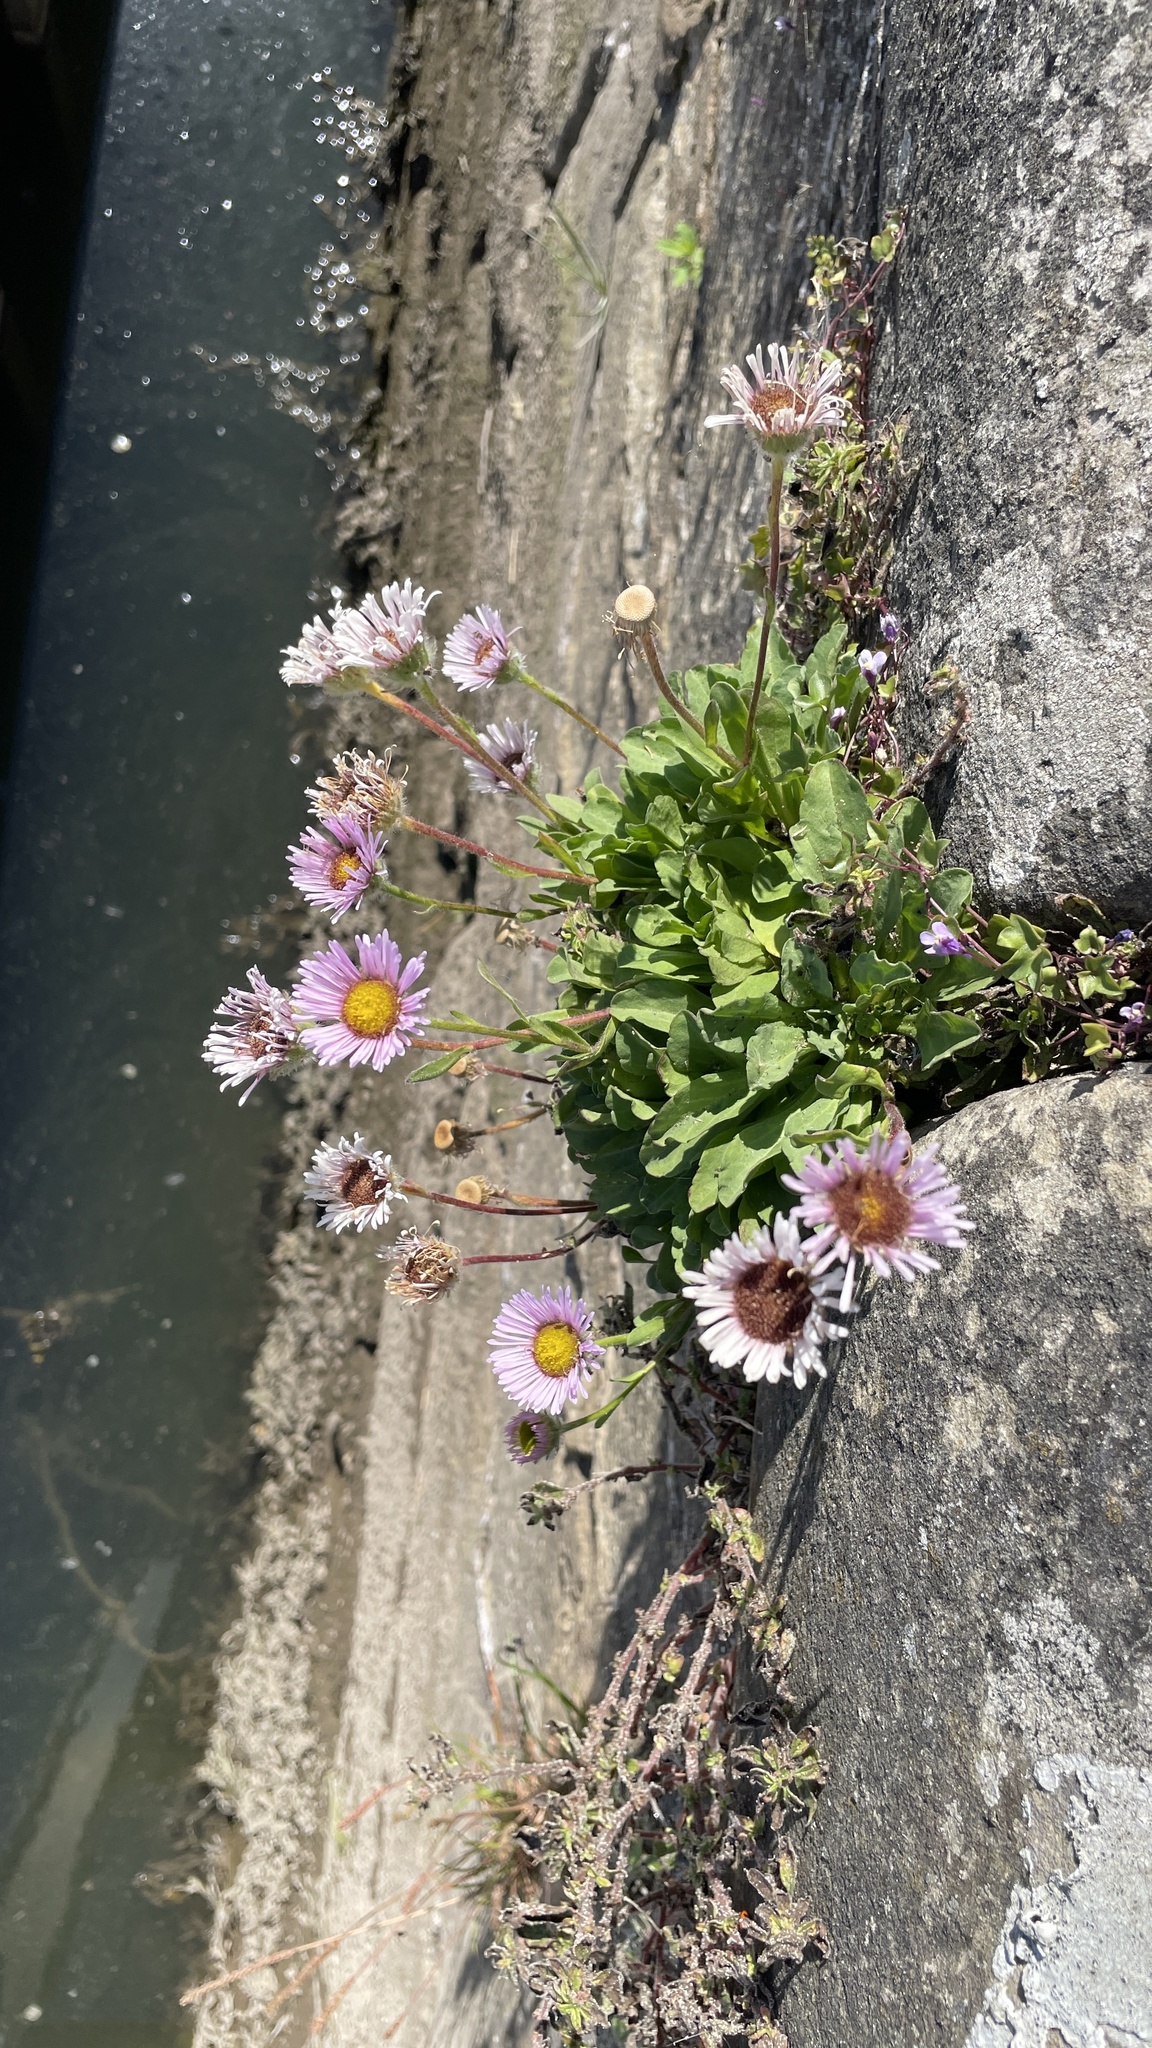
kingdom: Plantae
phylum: Tracheophyta
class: Magnoliopsida
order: Asterales
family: Asteraceae
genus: Erigeron
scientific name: Erigeron glaucus
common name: Seaside daisy
